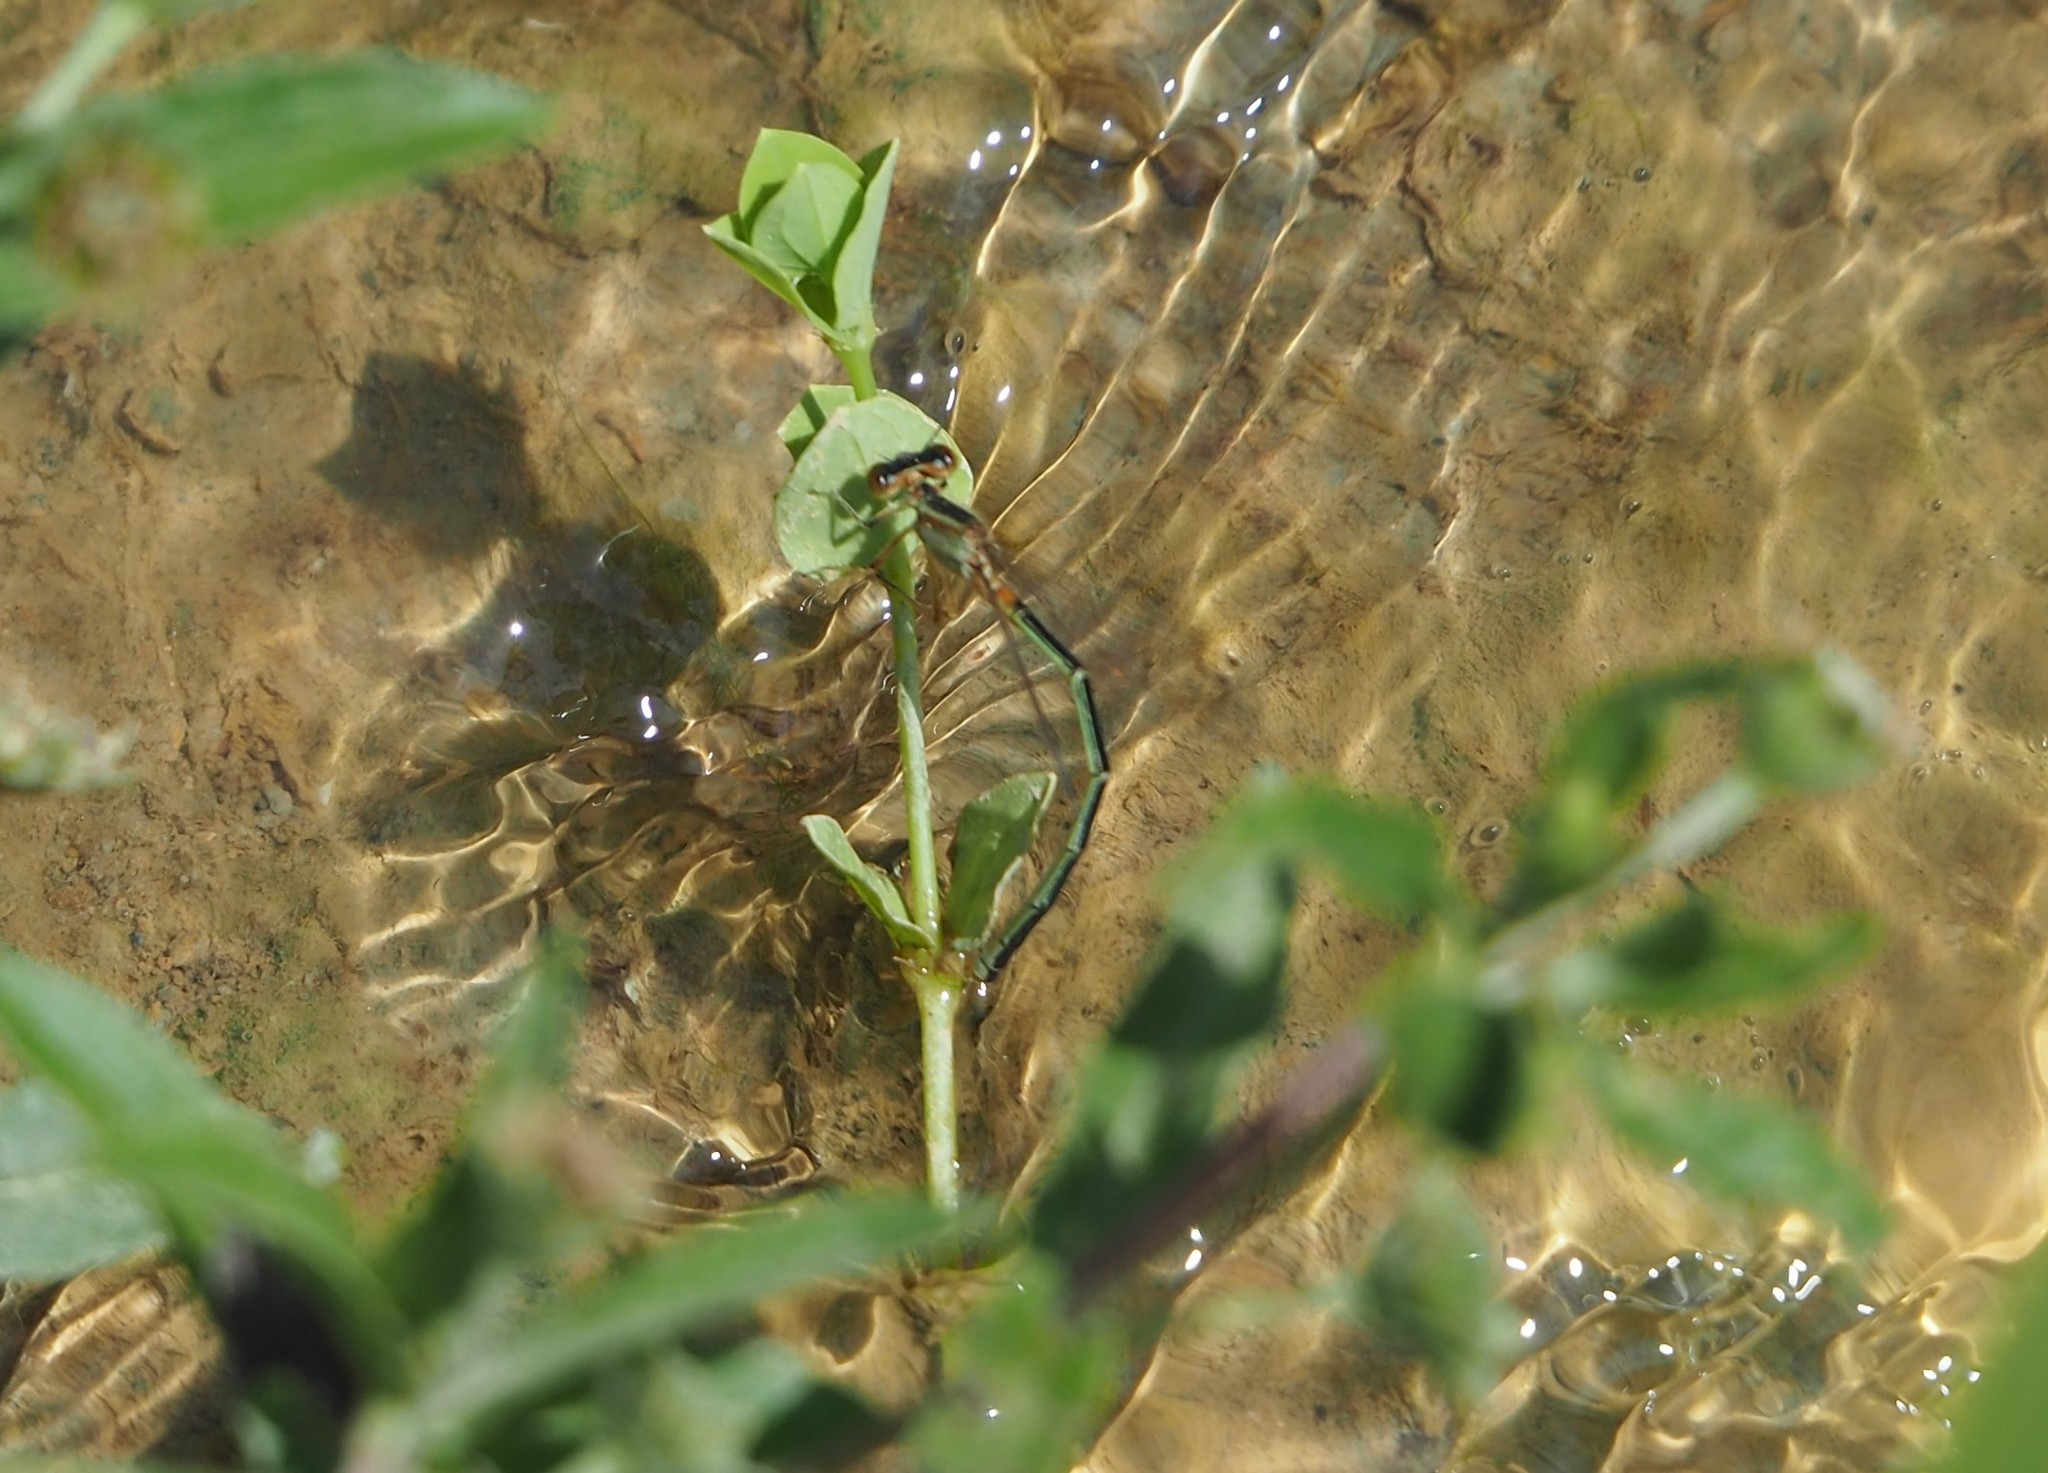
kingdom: Animalia
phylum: Arthropoda
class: Insecta
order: Odonata
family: Coenagrionidae
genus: Ischnura
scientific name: Ischnura senegalensis
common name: Tropical bluetail
